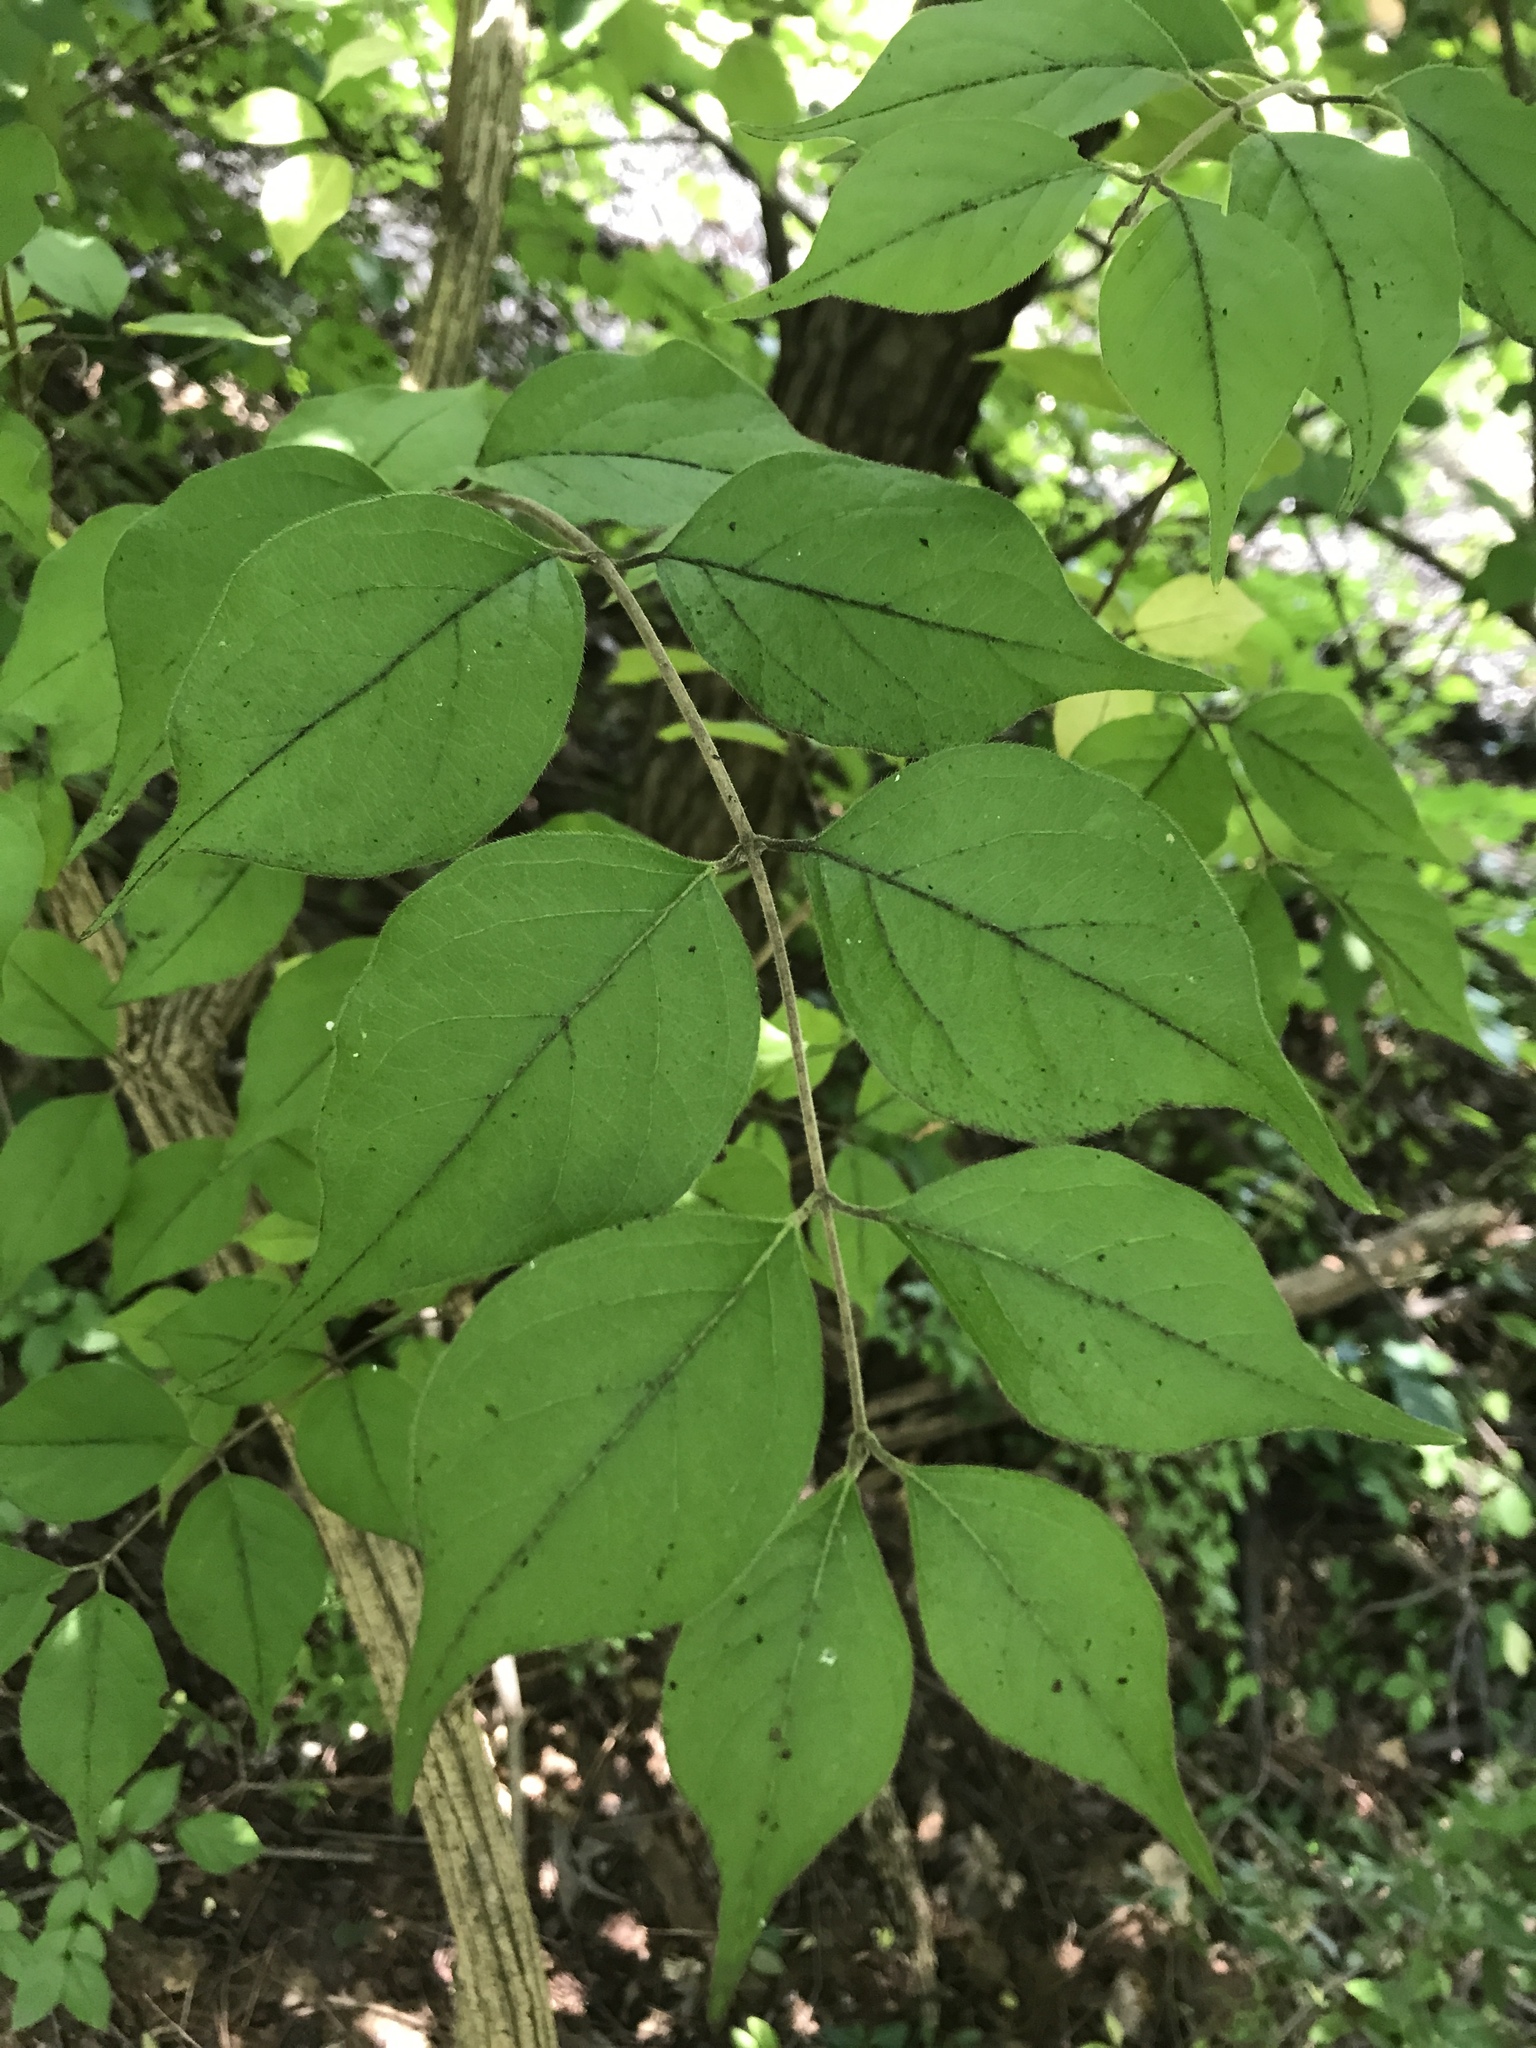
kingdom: Plantae
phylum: Tracheophyta
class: Magnoliopsida
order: Dipsacales
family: Caprifoliaceae
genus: Lonicera
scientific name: Lonicera maackii
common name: Amur honeysuckle
